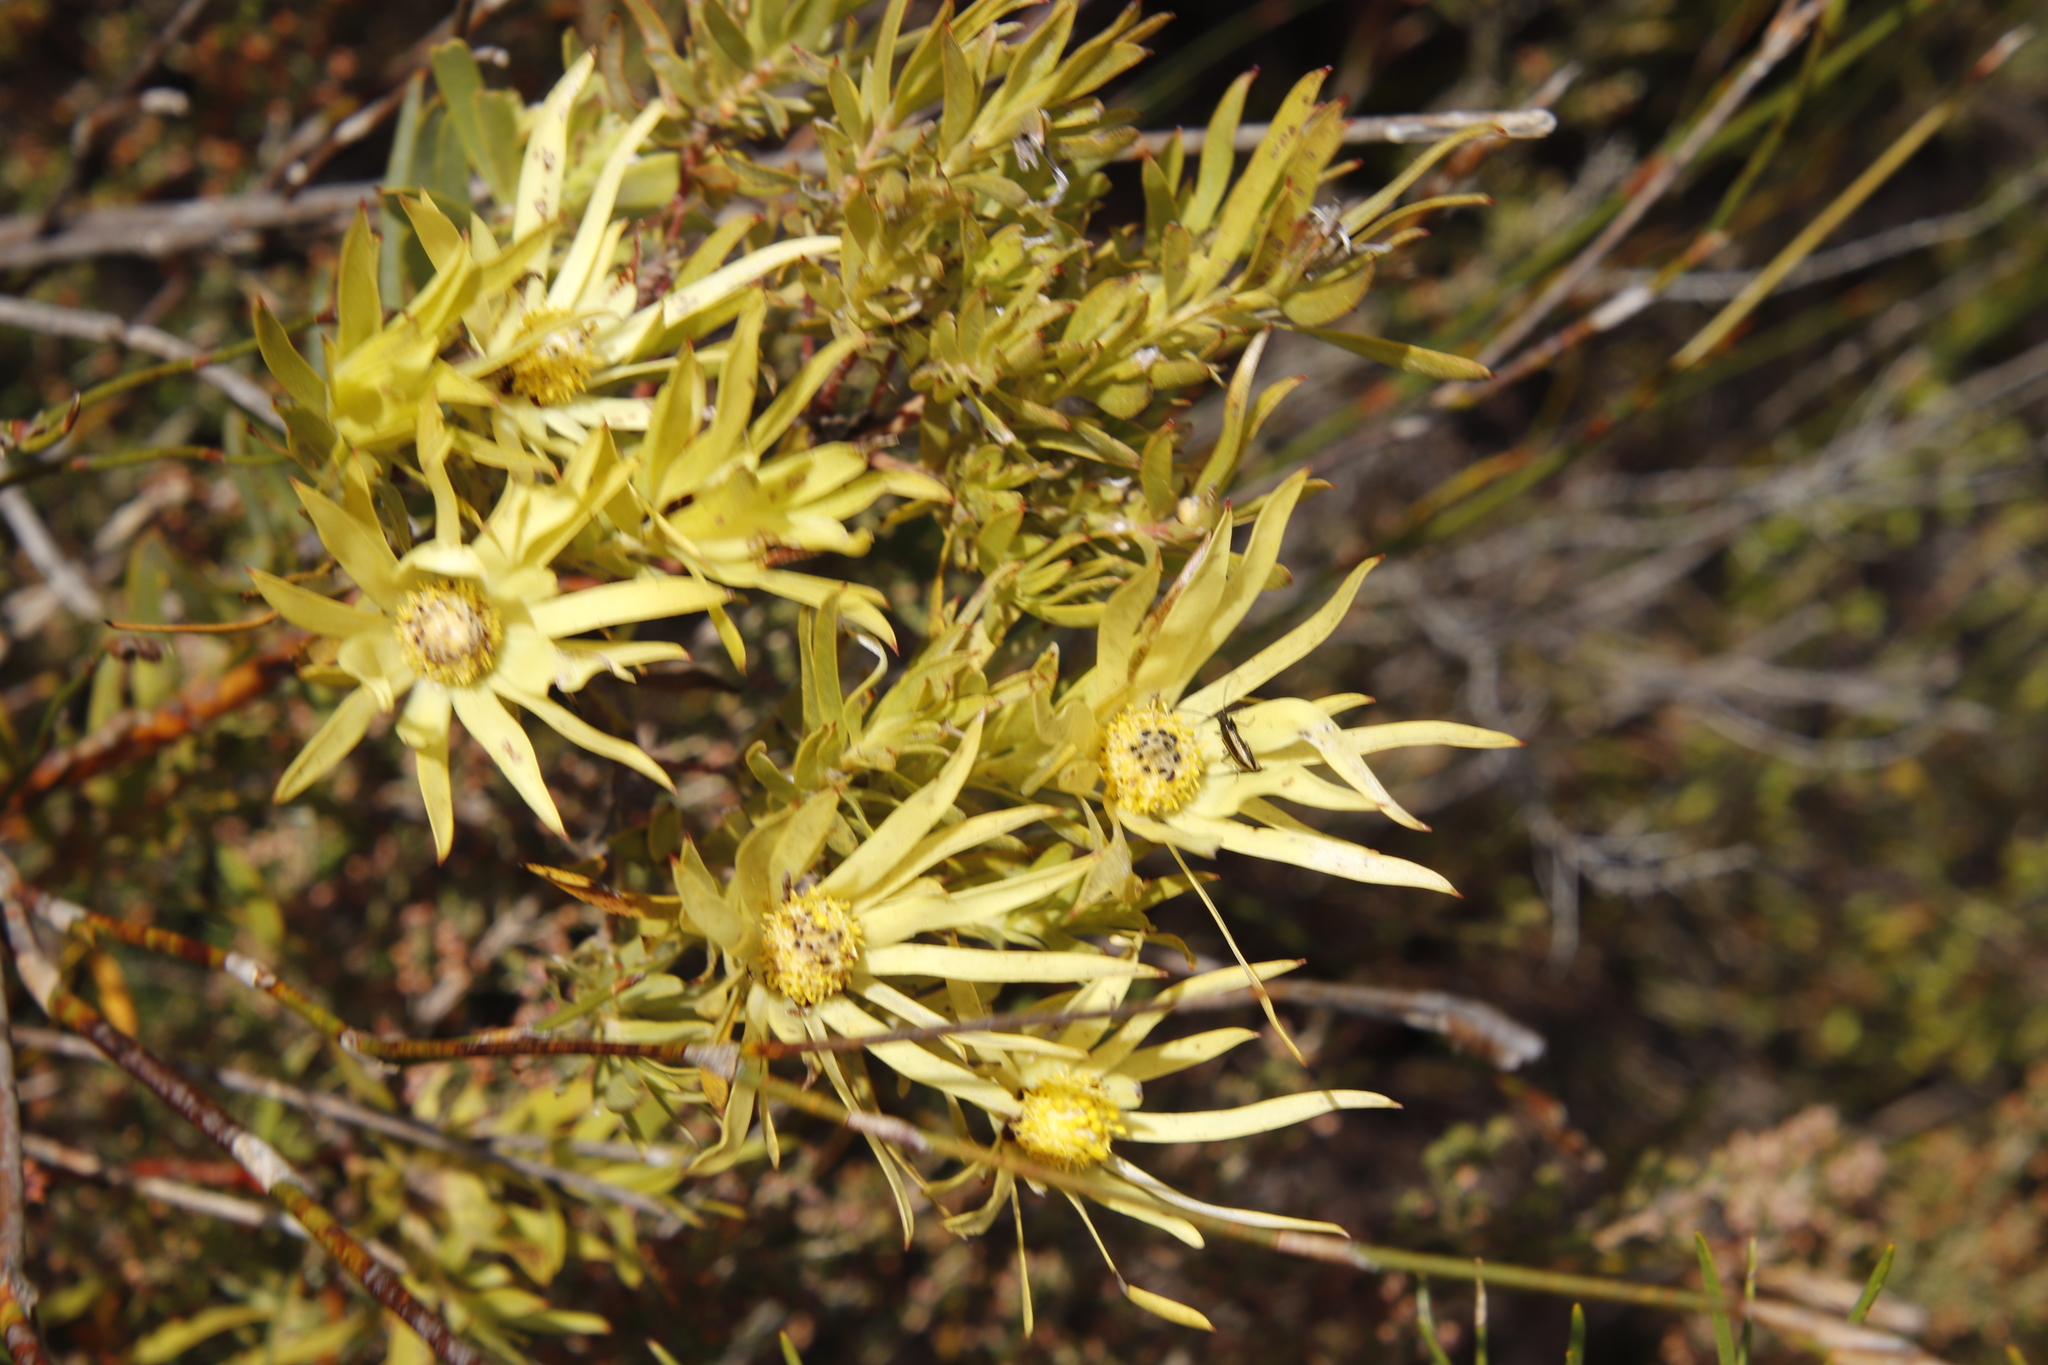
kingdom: Plantae
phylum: Tracheophyta
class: Magnoliopsida
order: Proteales
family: Proteaceae
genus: Leucadendron
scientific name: Leucadendron salignum
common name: Common sunshine conebush
